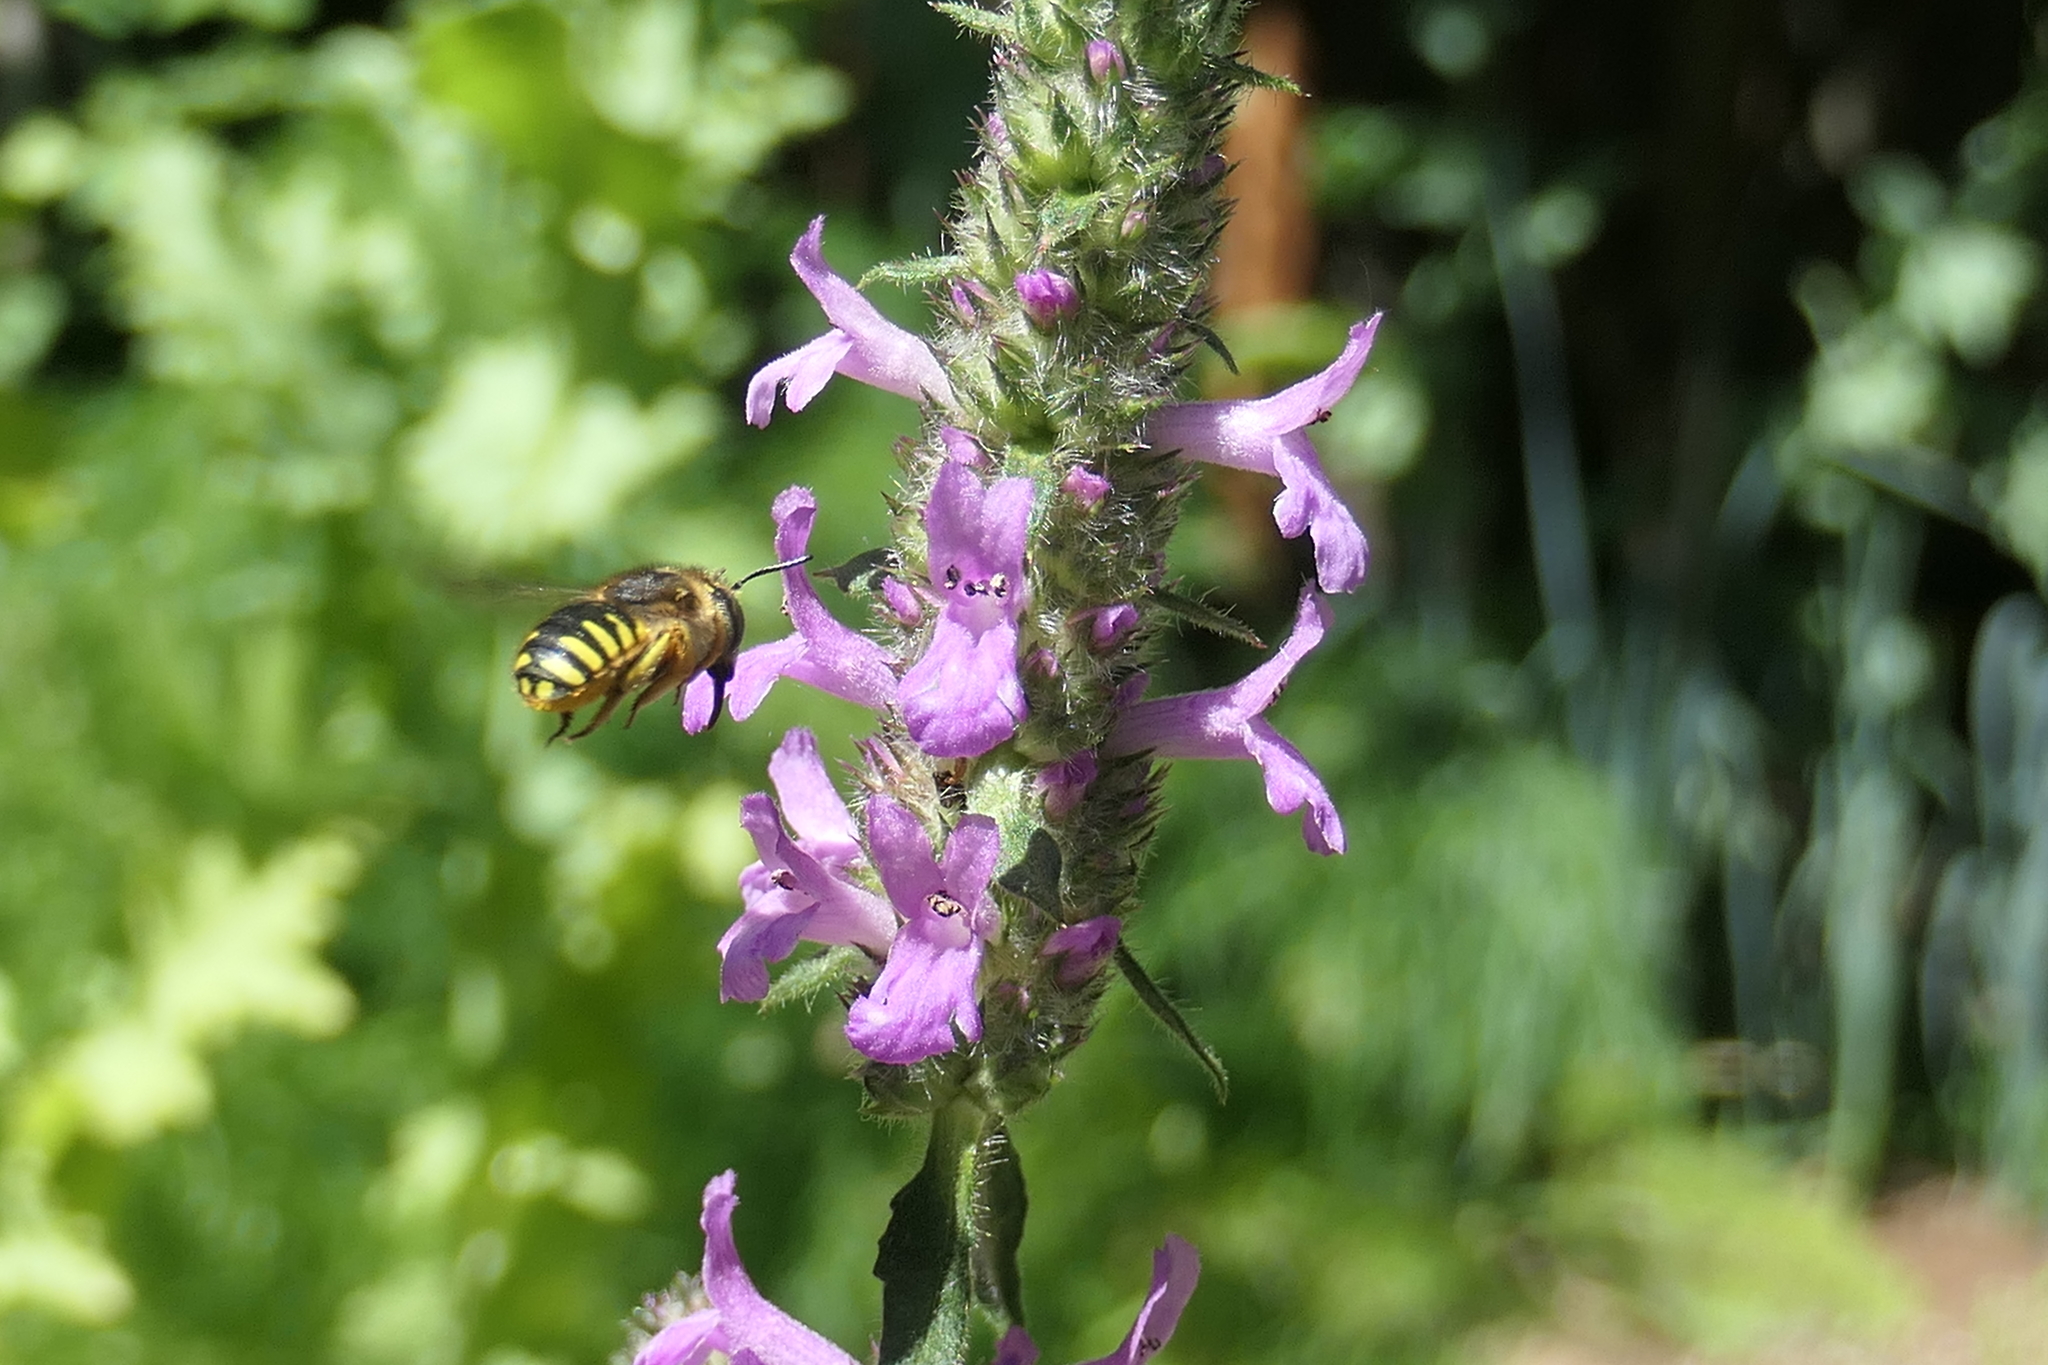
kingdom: Animalia
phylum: Arthropoda
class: Insecta
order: Hymenoptera
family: Megachilidae
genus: Anthidium
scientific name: Anthidium manicatum
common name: Wool carder bee
